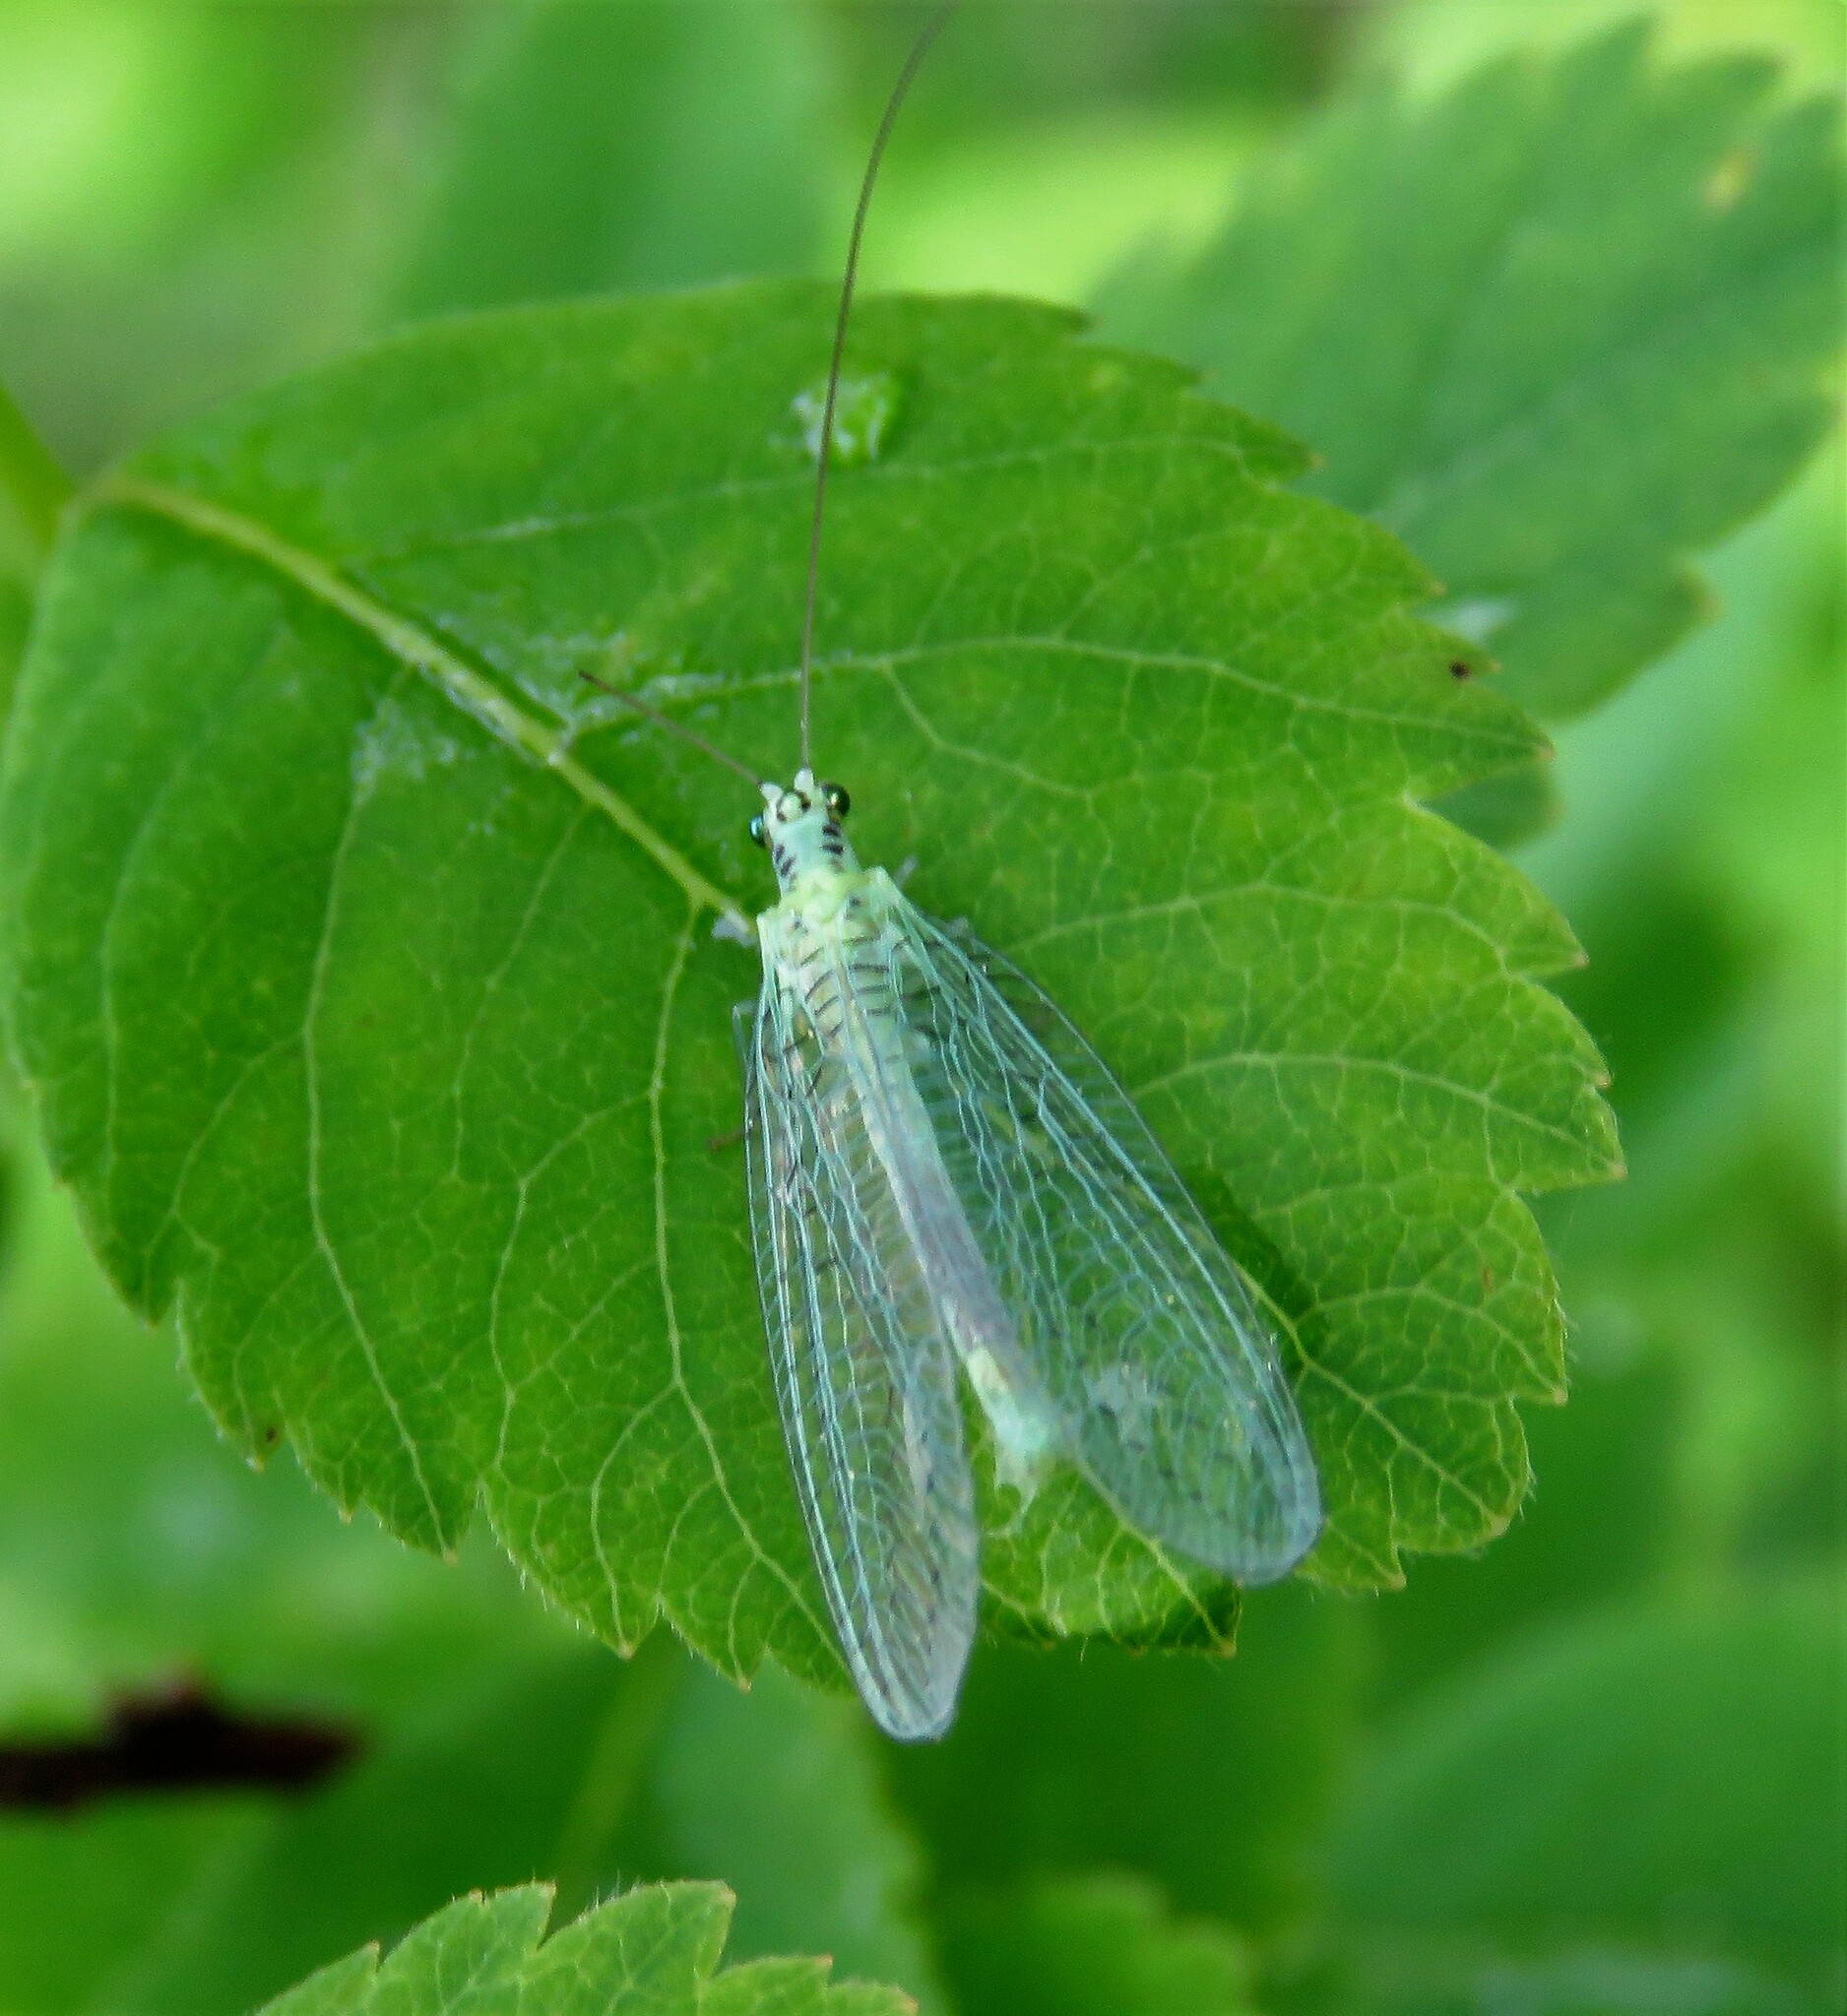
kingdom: Animalia
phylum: Arthropoda
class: Insecta
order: Neuroptera
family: Chrysopidae
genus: Chrysopa
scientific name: Chrysopa chi
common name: X-marked green lacewing
